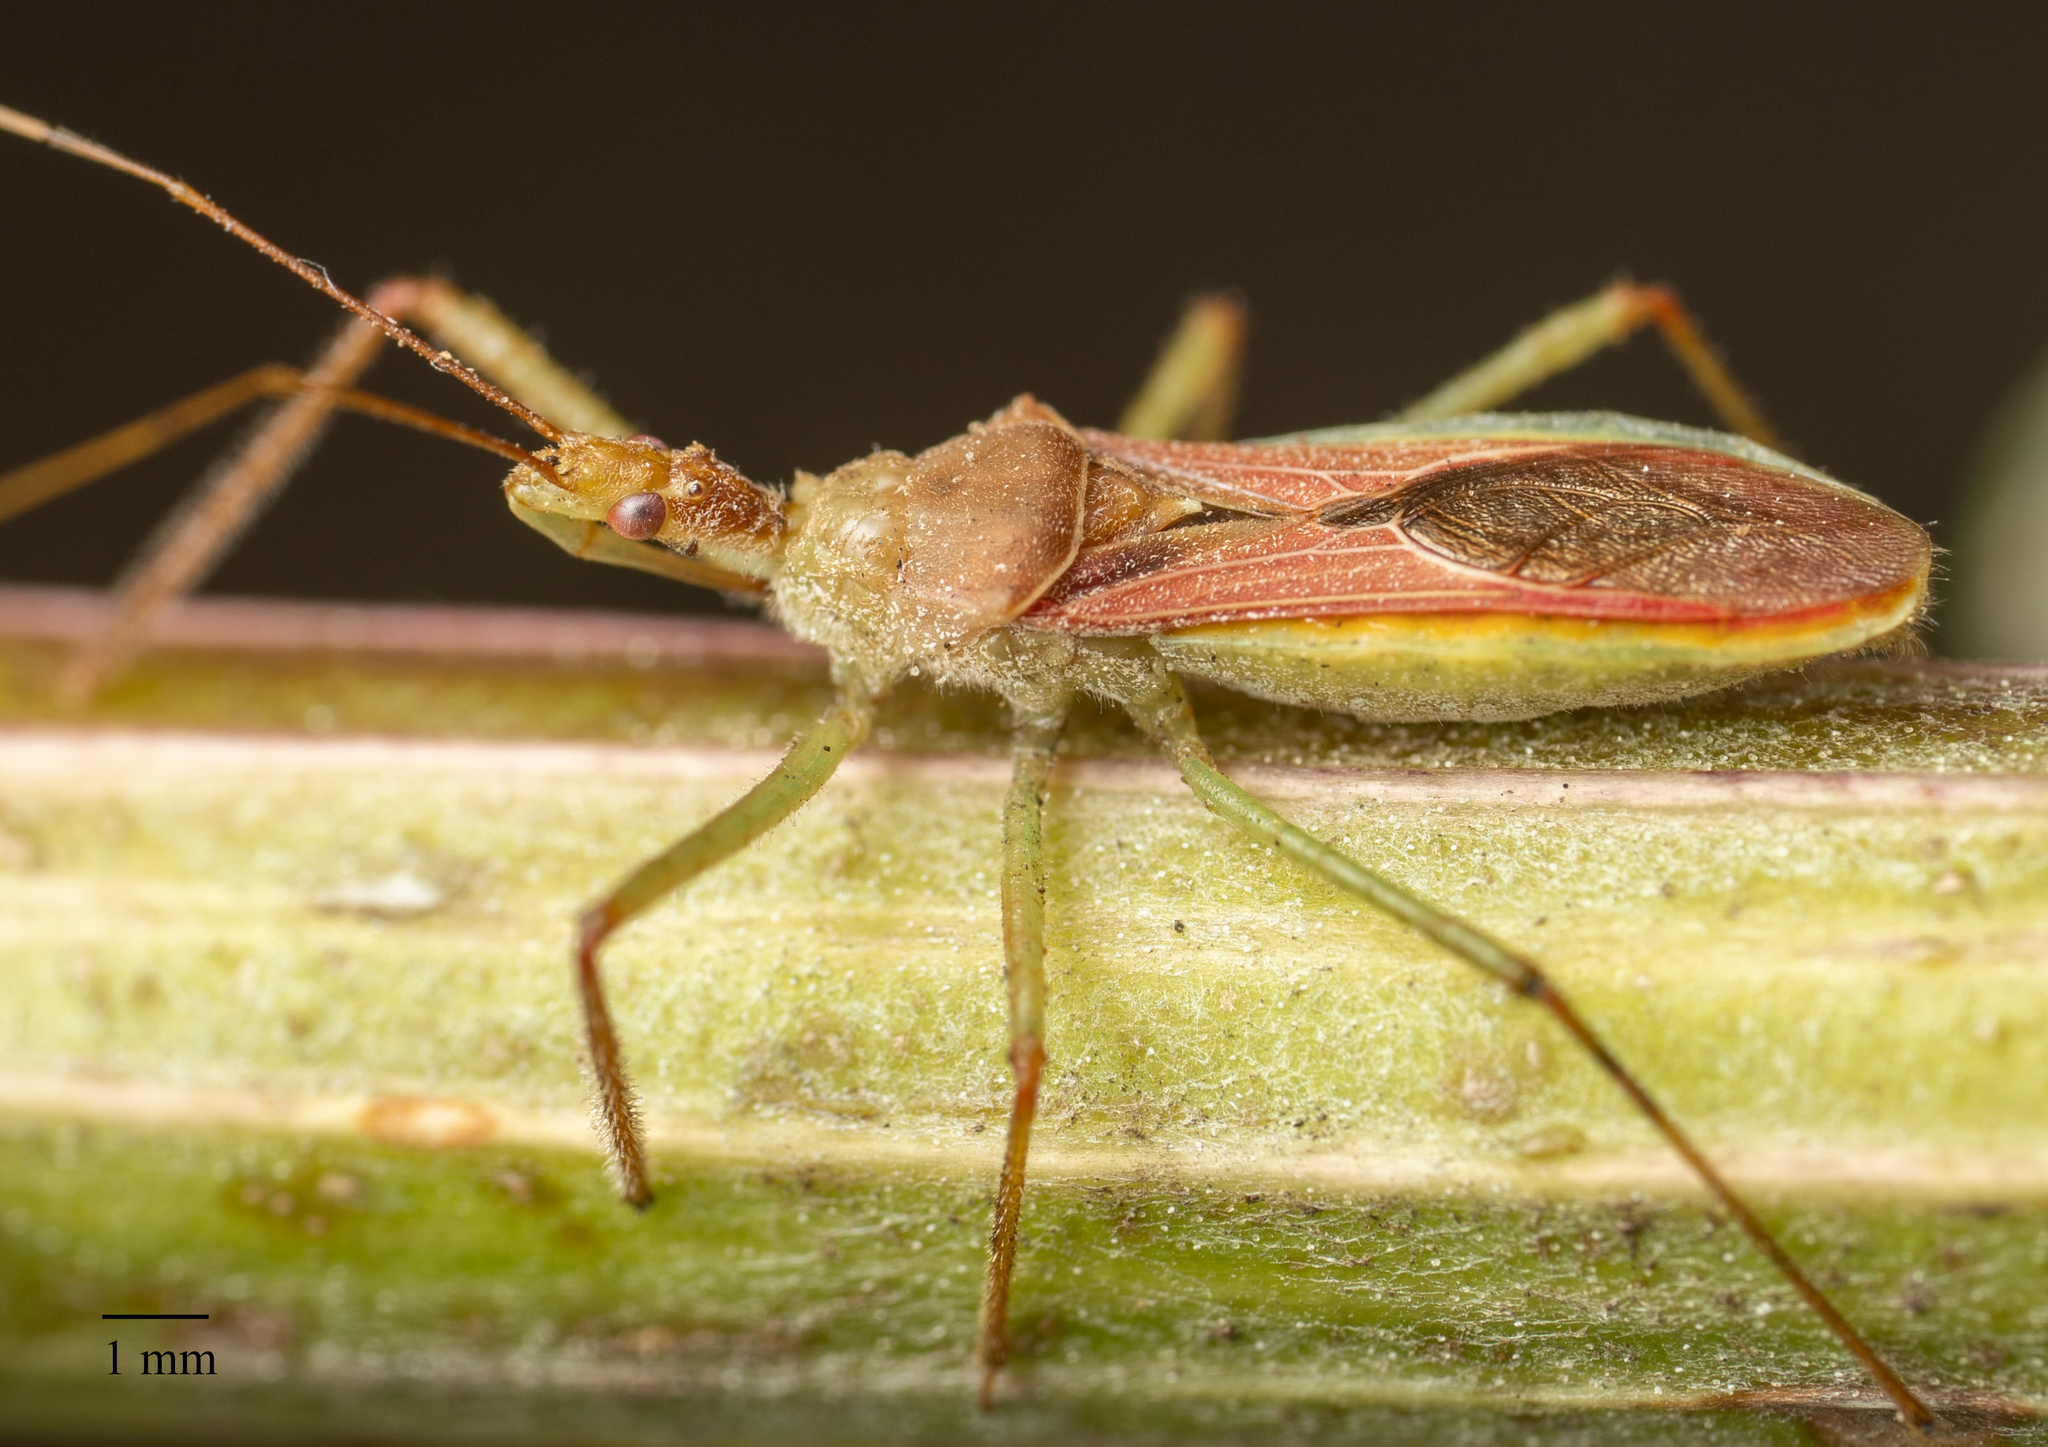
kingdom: Animalia
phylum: Arthropoda
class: Insecta
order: Hemiptera
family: Reduviidae
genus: Zelus
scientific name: Zelus renardii
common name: Assassin bug
